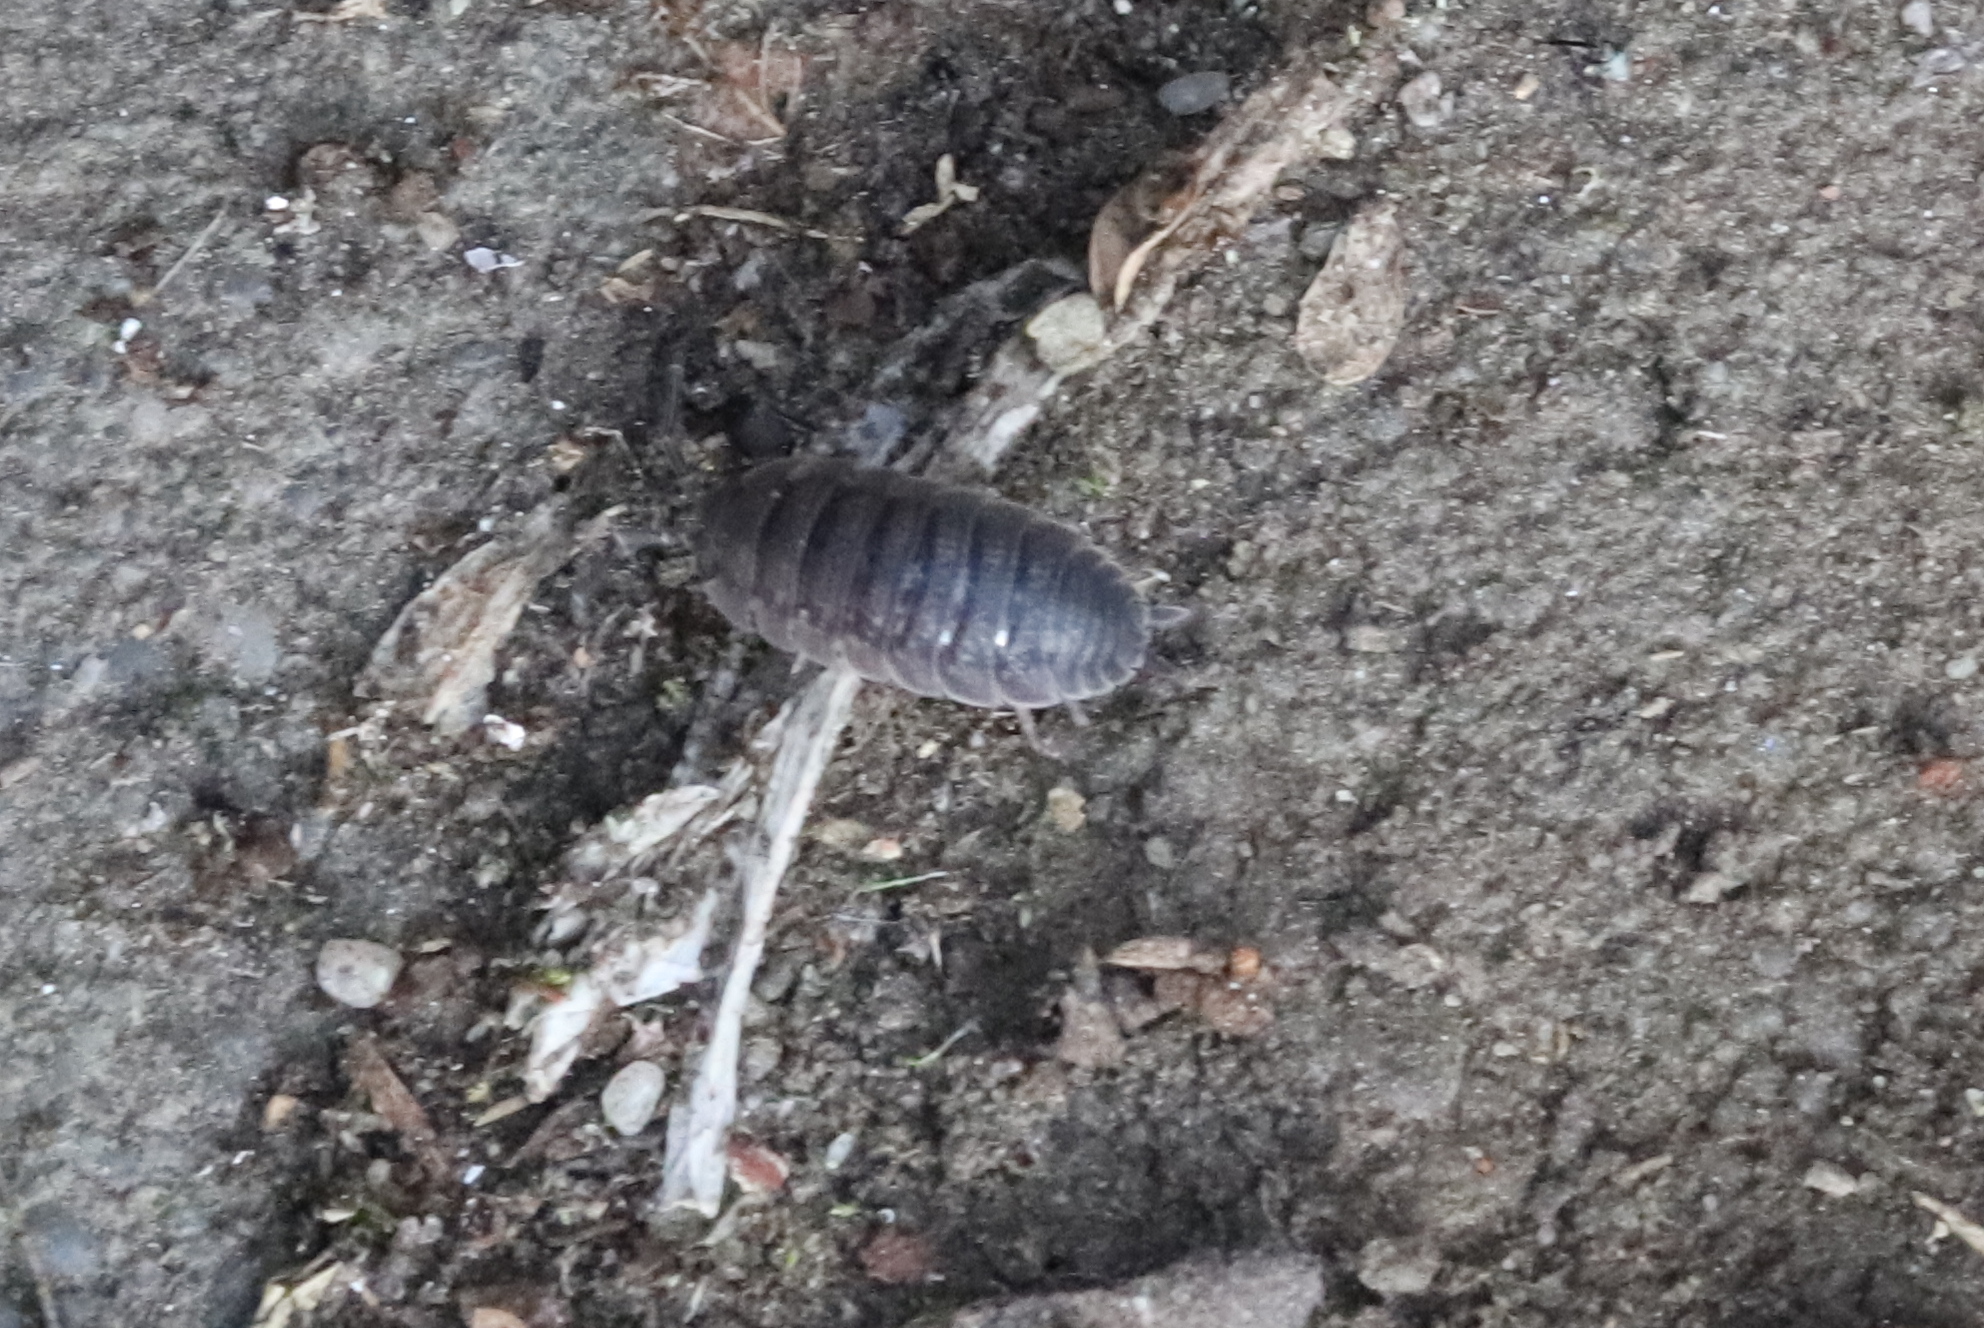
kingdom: Animalia
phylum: Arthropoda
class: Malacostraca
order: Isopoda
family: Porcellionidae
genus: Porcellio
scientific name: Porcellio scaber
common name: Common rough woodlouse
